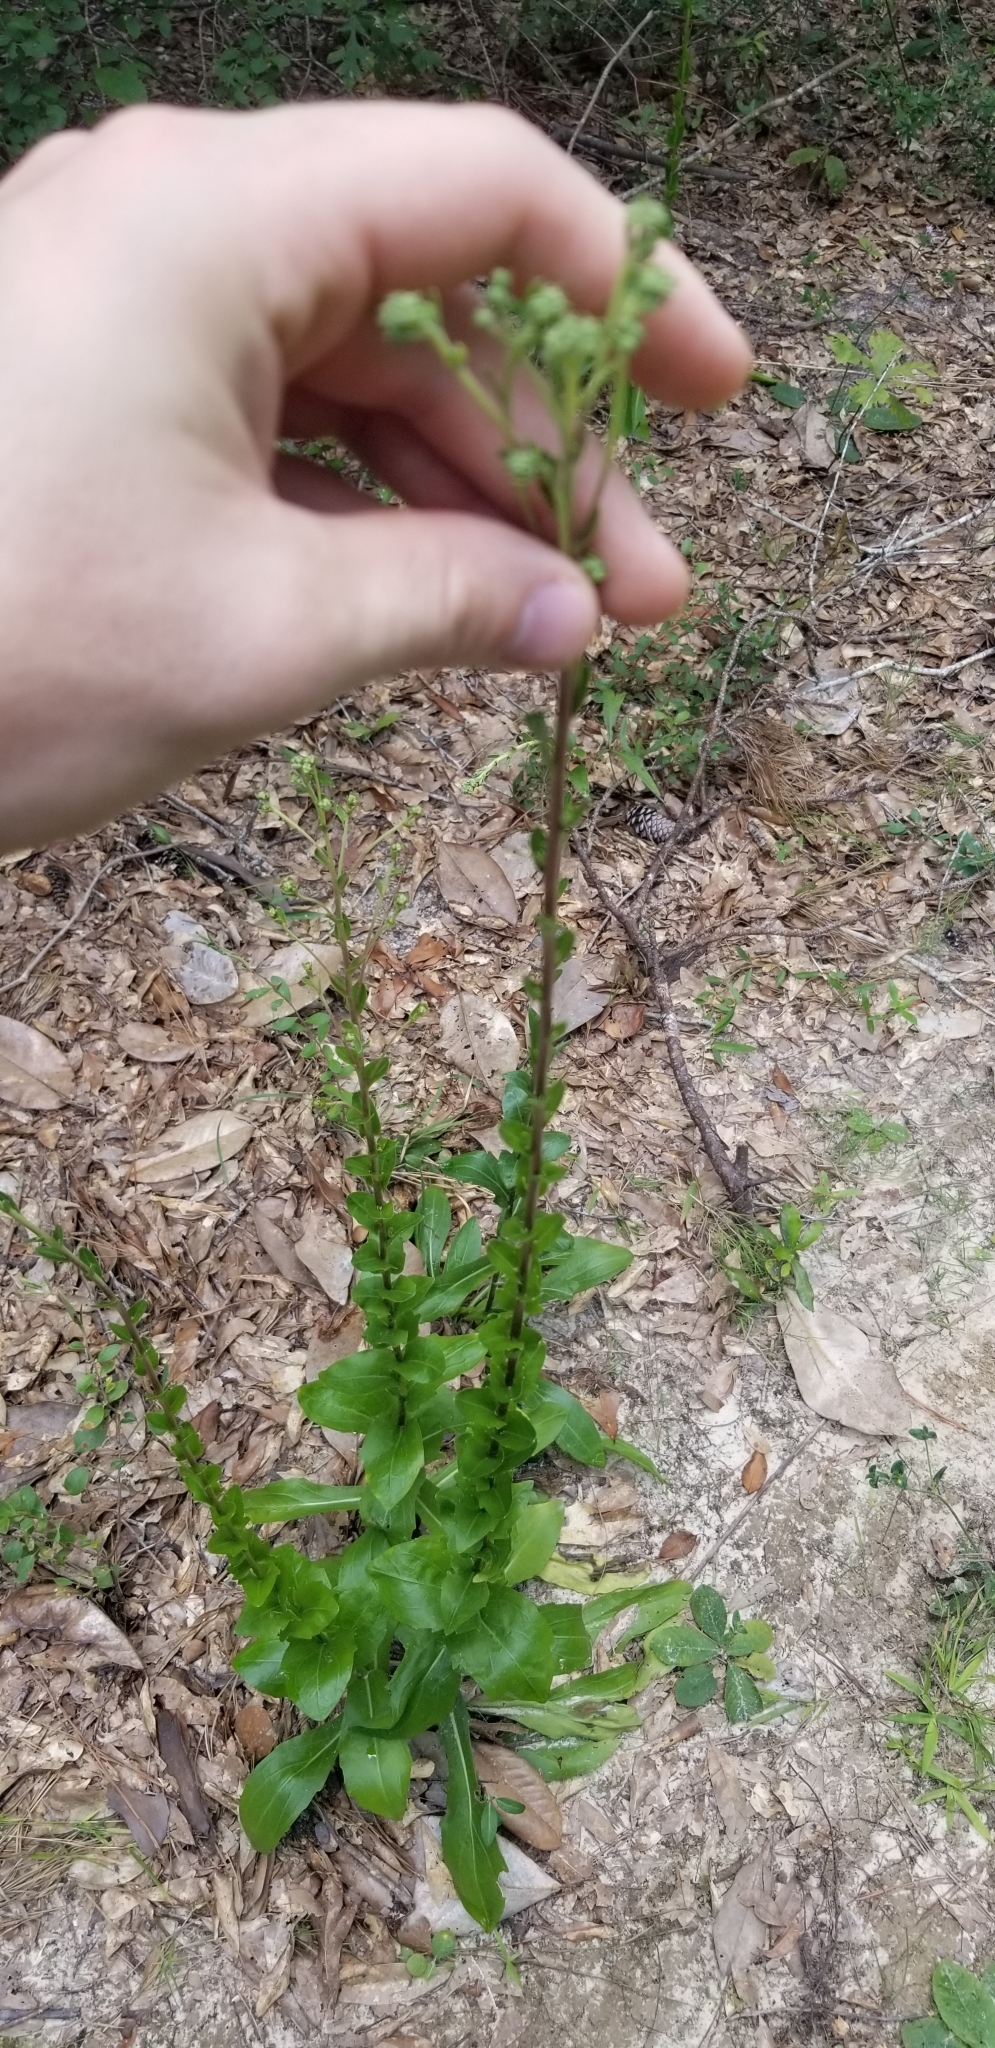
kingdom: Plantae
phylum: Tracheophyta
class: Magnoliopsida
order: Asterales
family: Asteraceae
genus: Carphephorus
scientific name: Carphephorus odoratissimus
